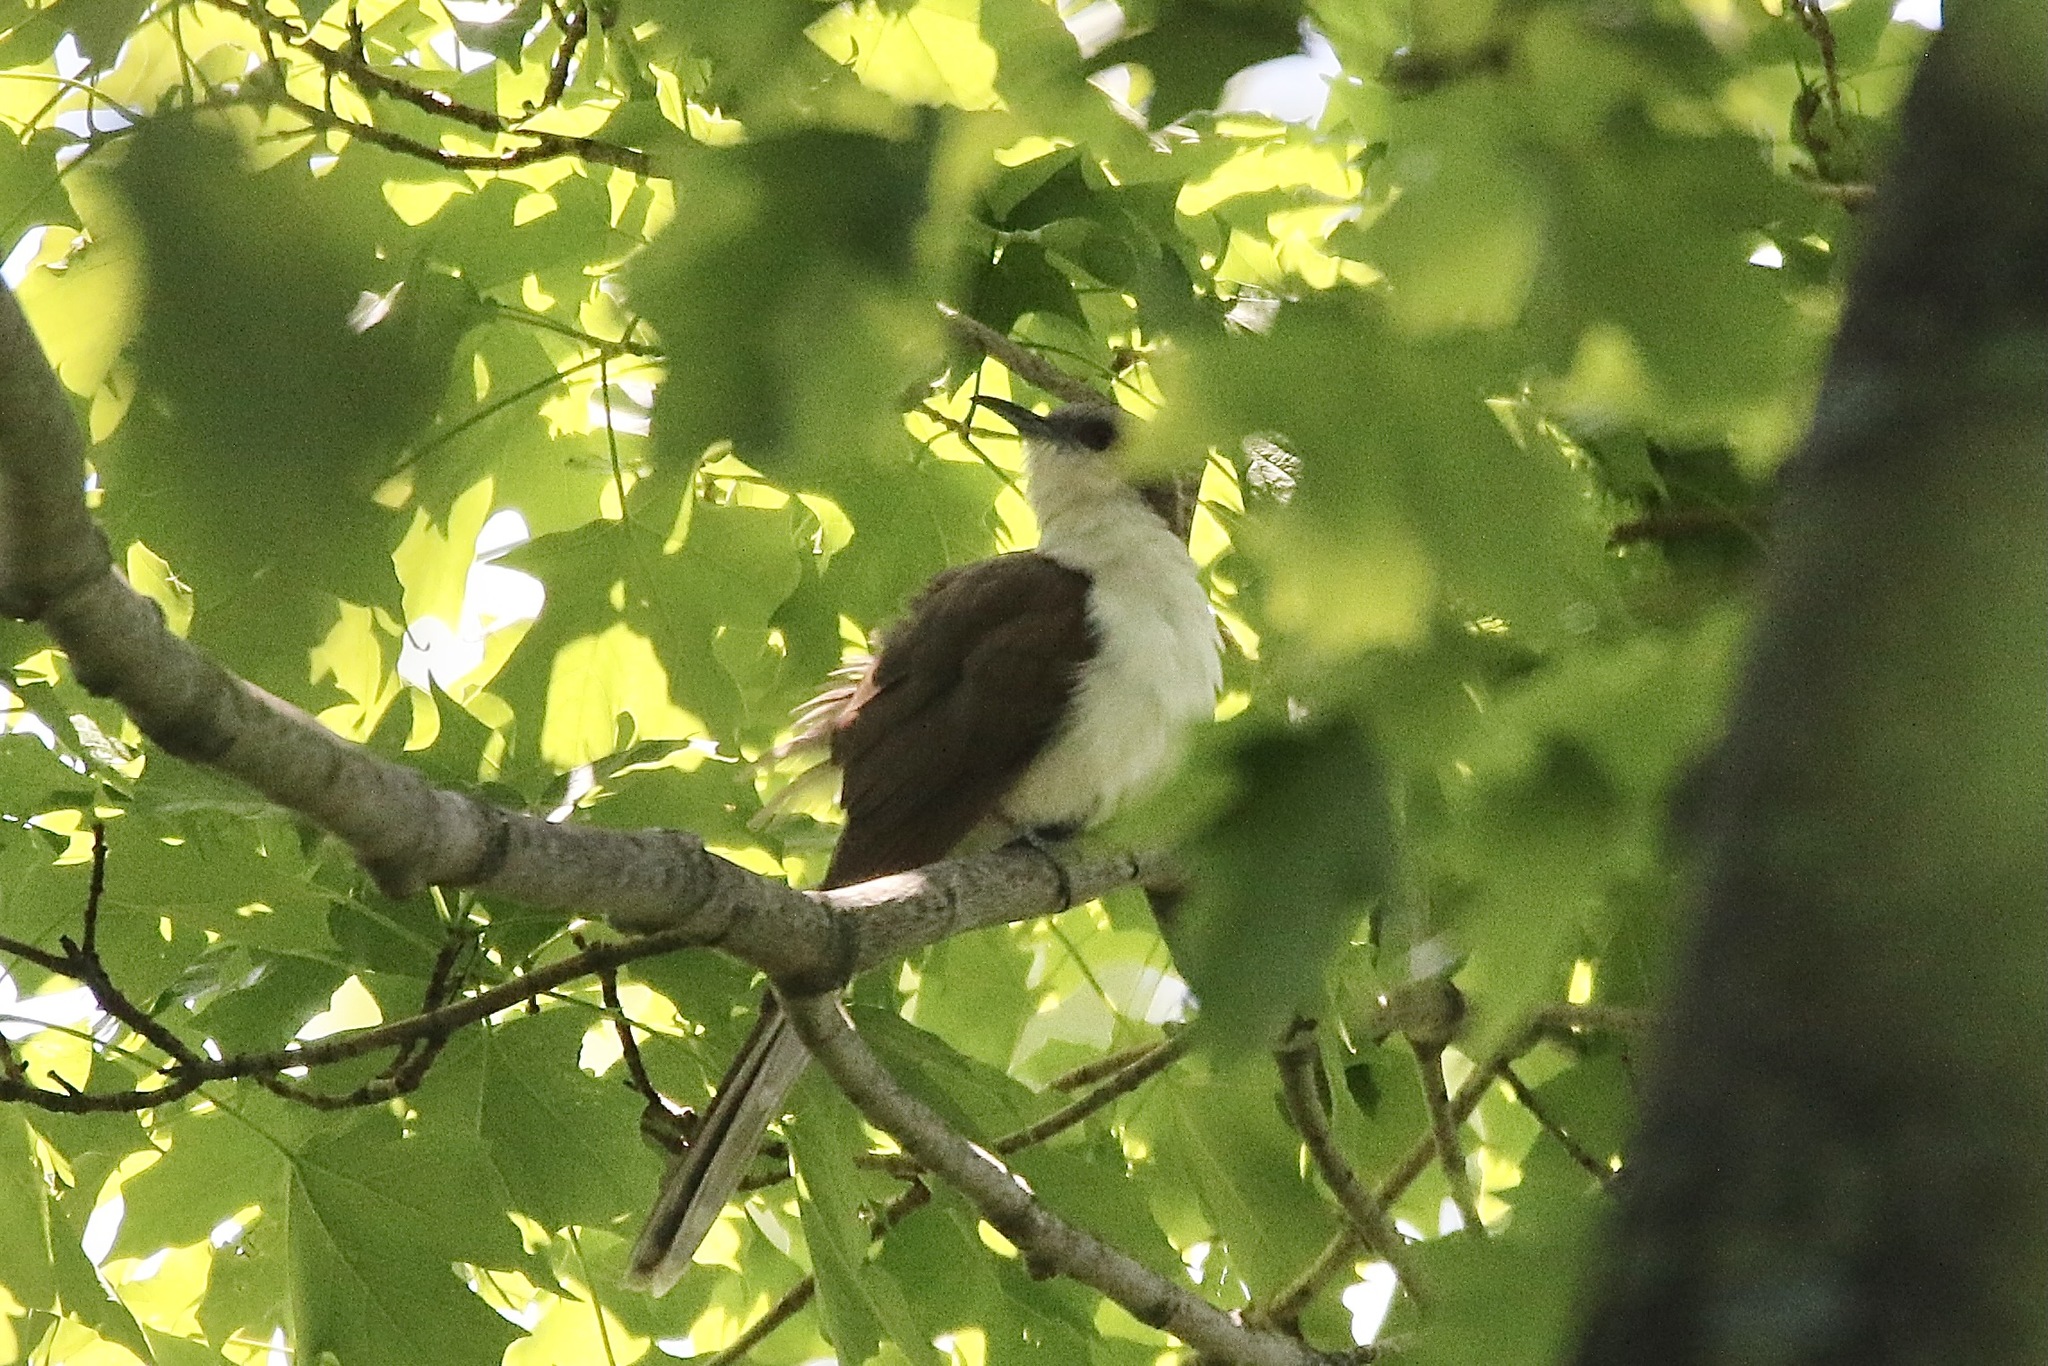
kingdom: Animalia
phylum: Chordata
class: Aves
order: Cuculiformes
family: Cuculidae
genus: Coccyzus
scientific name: Coccyzus erythropthalmus
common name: Black-billed cuckoo
